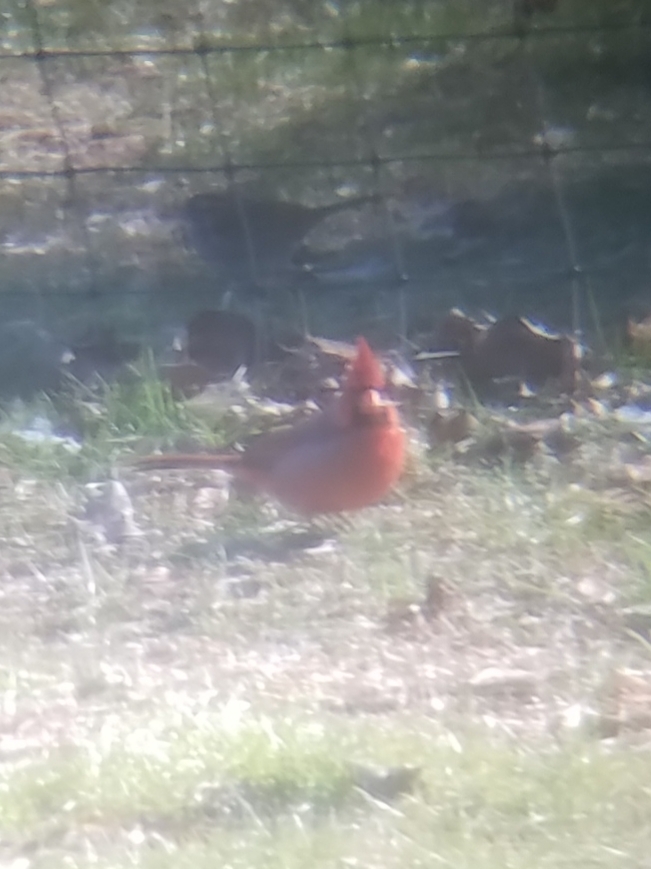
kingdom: Animalia
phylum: Chordata
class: Aves
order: Passeriformes
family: Cardinalidae
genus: Cardinalis
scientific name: Cardinalis cardinalis
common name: Northern cardinal
